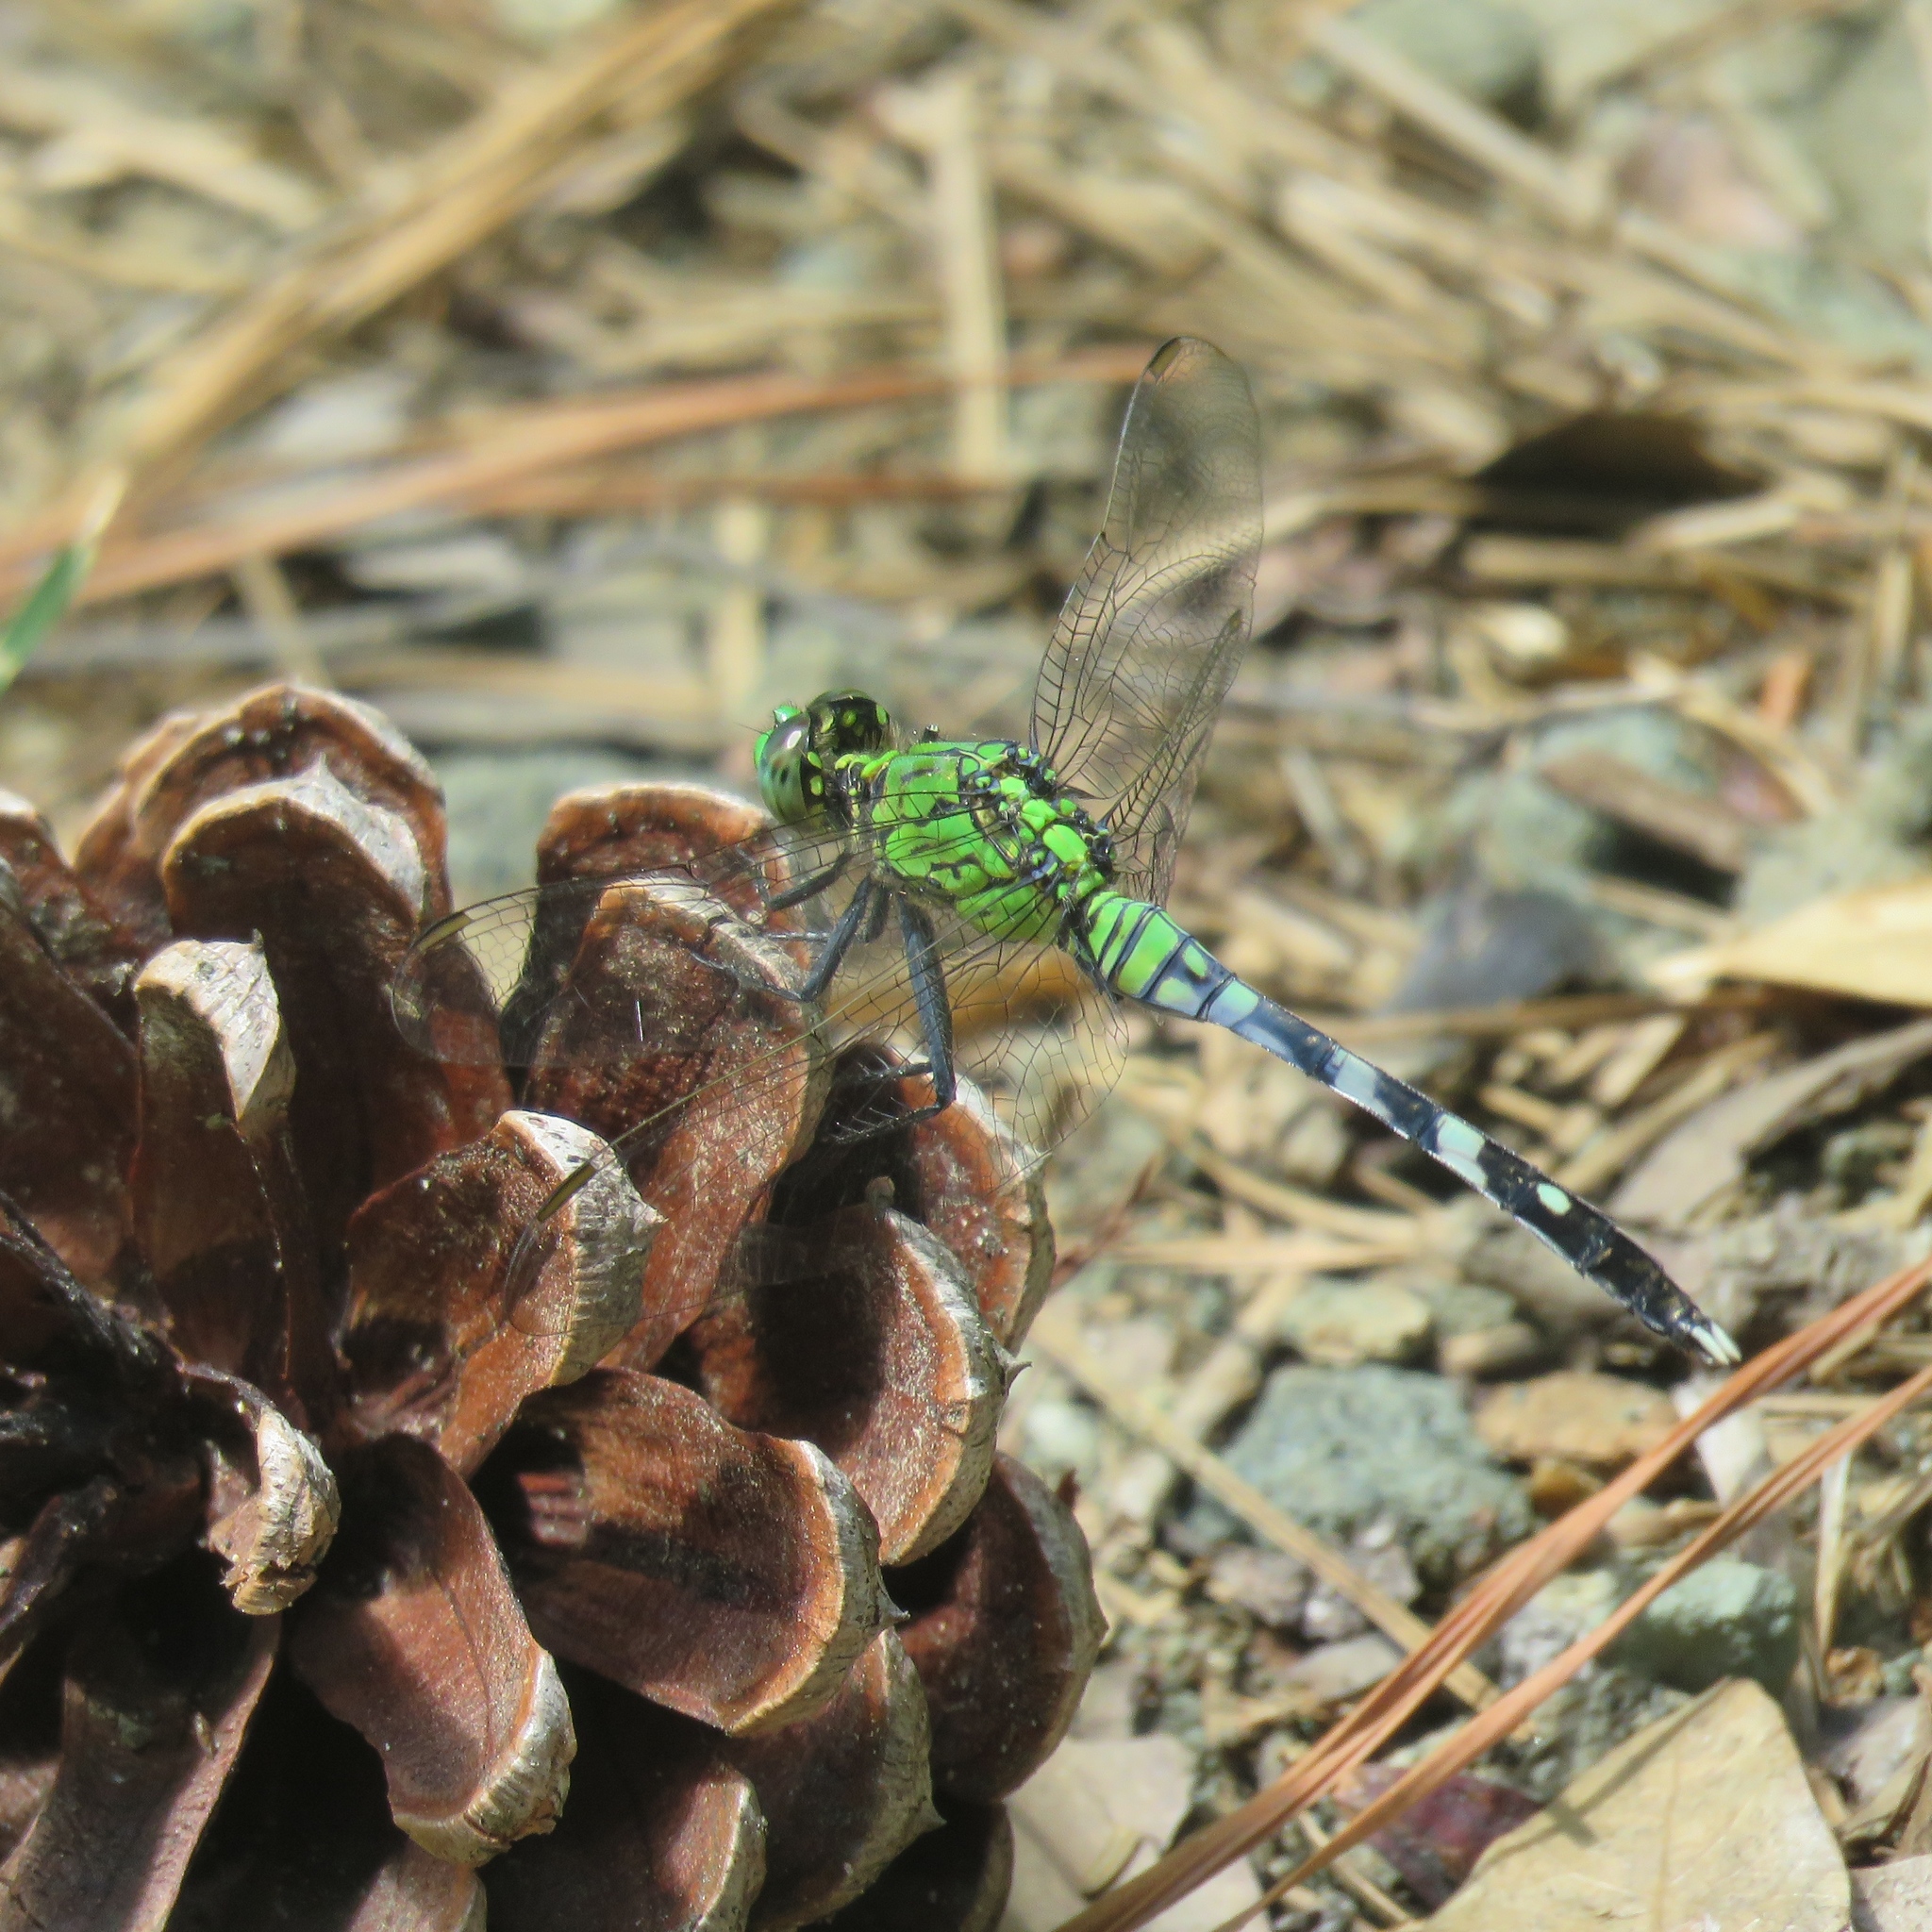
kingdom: Animalia
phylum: Arthropoda
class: Insecta
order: Odonata
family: Libellulidae
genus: Erythemis
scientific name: Erythemis simplicicollis
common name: Eastern pondhawk
